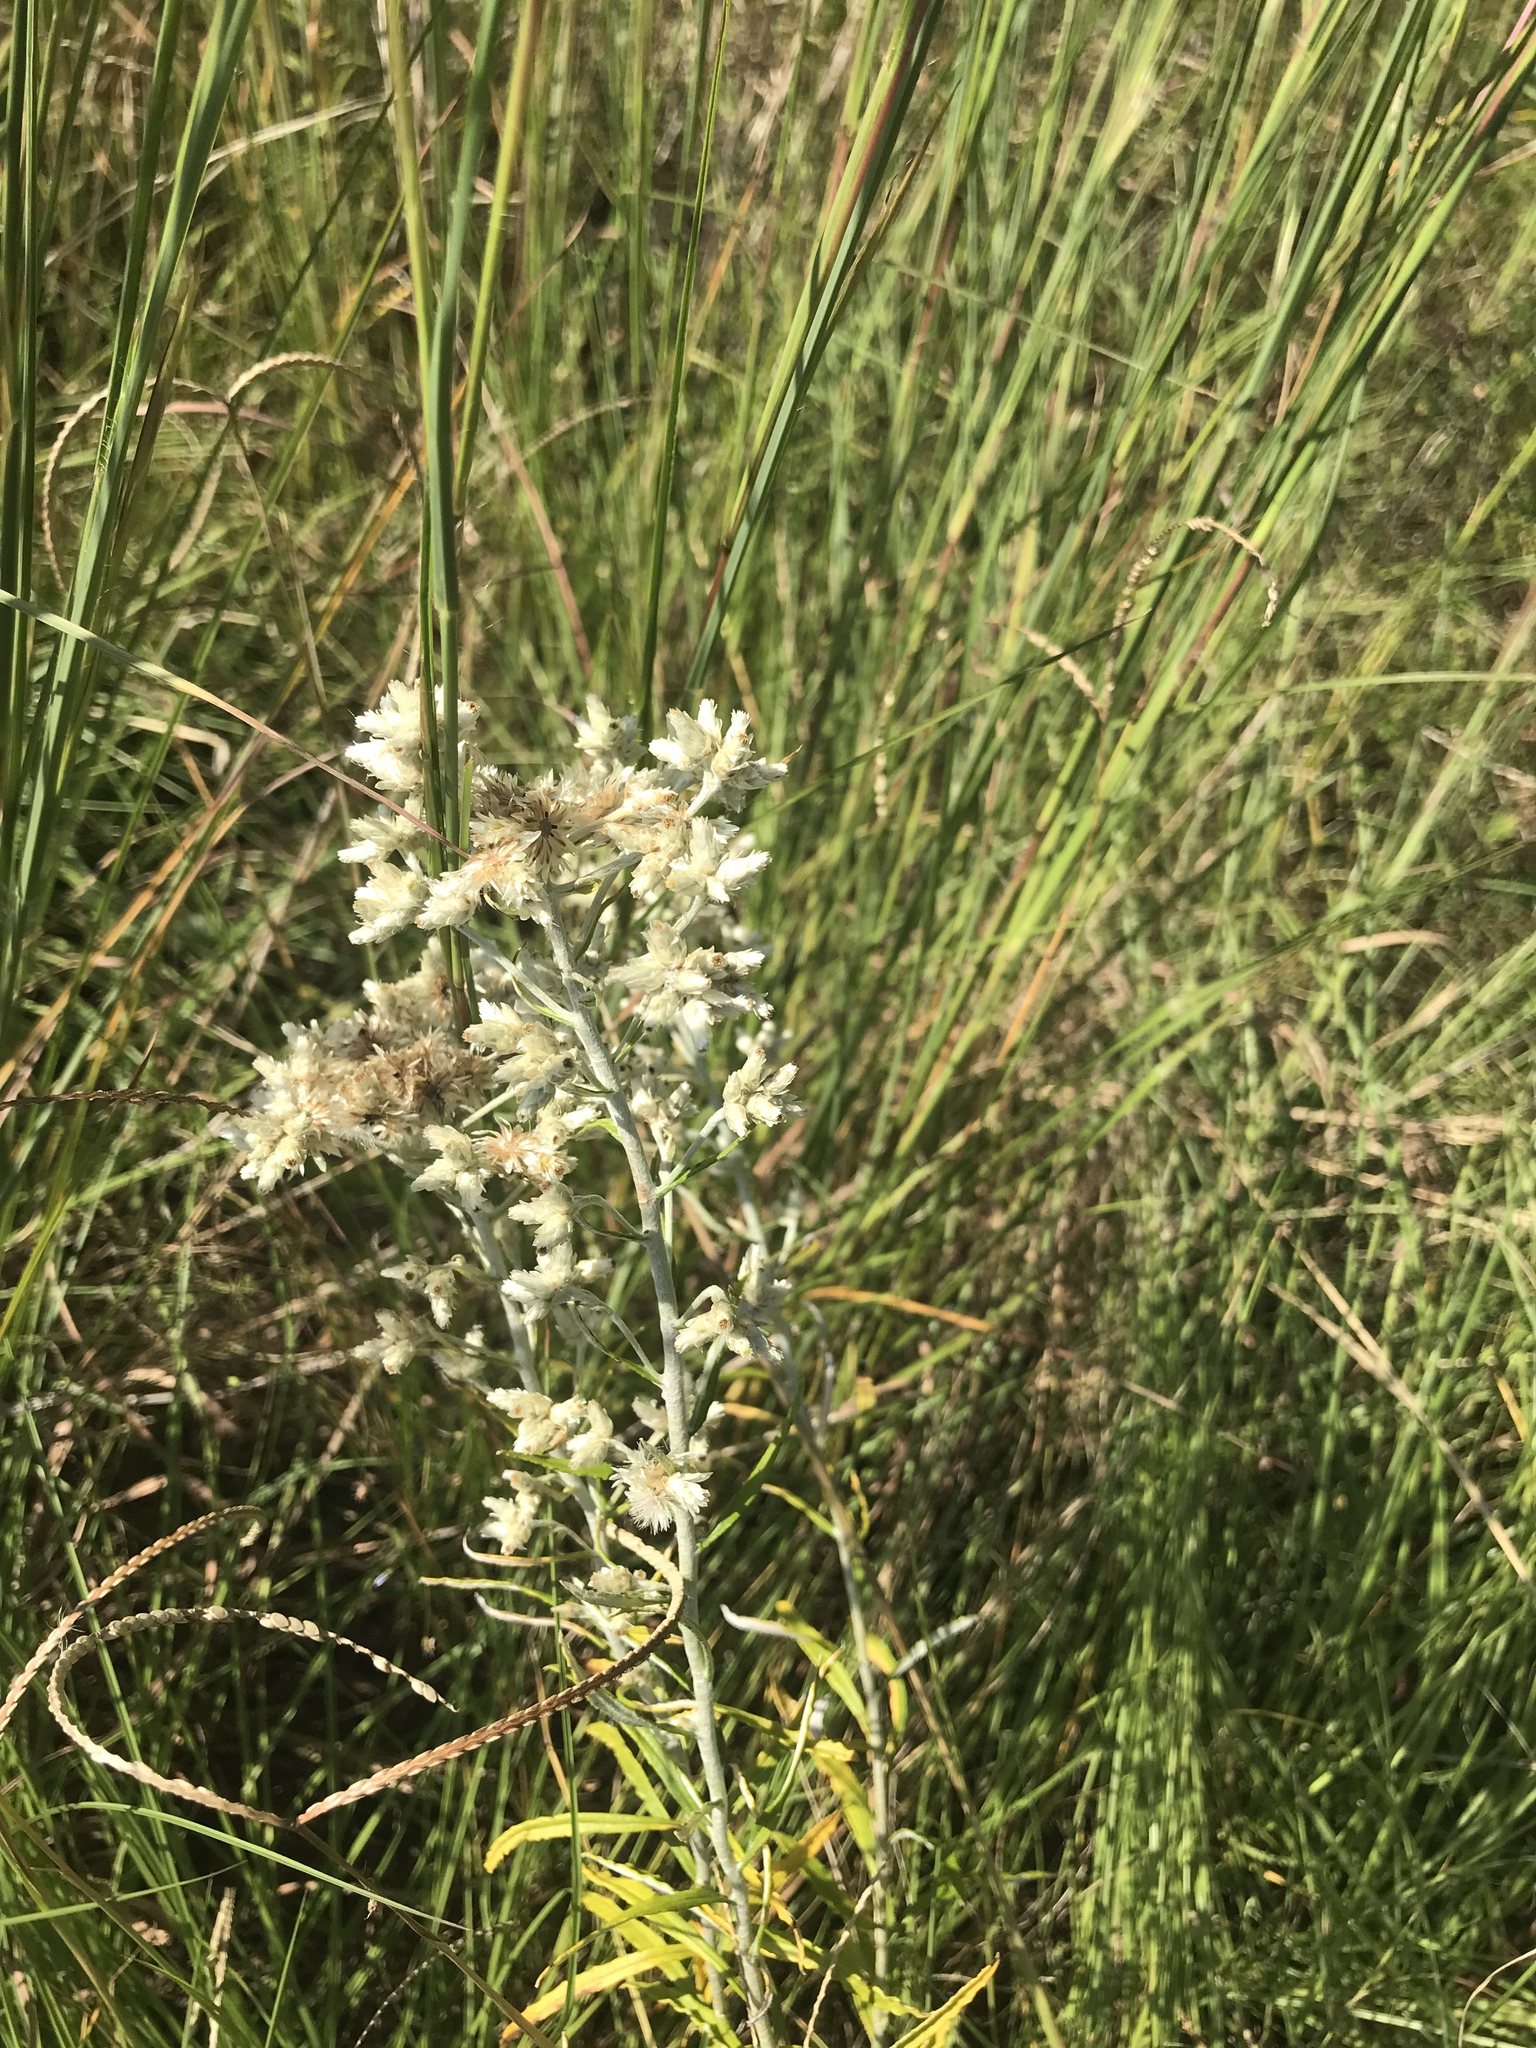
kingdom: Plantae
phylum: Tracheophyta
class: Magnoliopsida
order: Asterales
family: Asteraceae
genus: Pseudognaphalium
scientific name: Pseudognaphalium obtusifolium
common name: Eastern rabbit-tobacco
